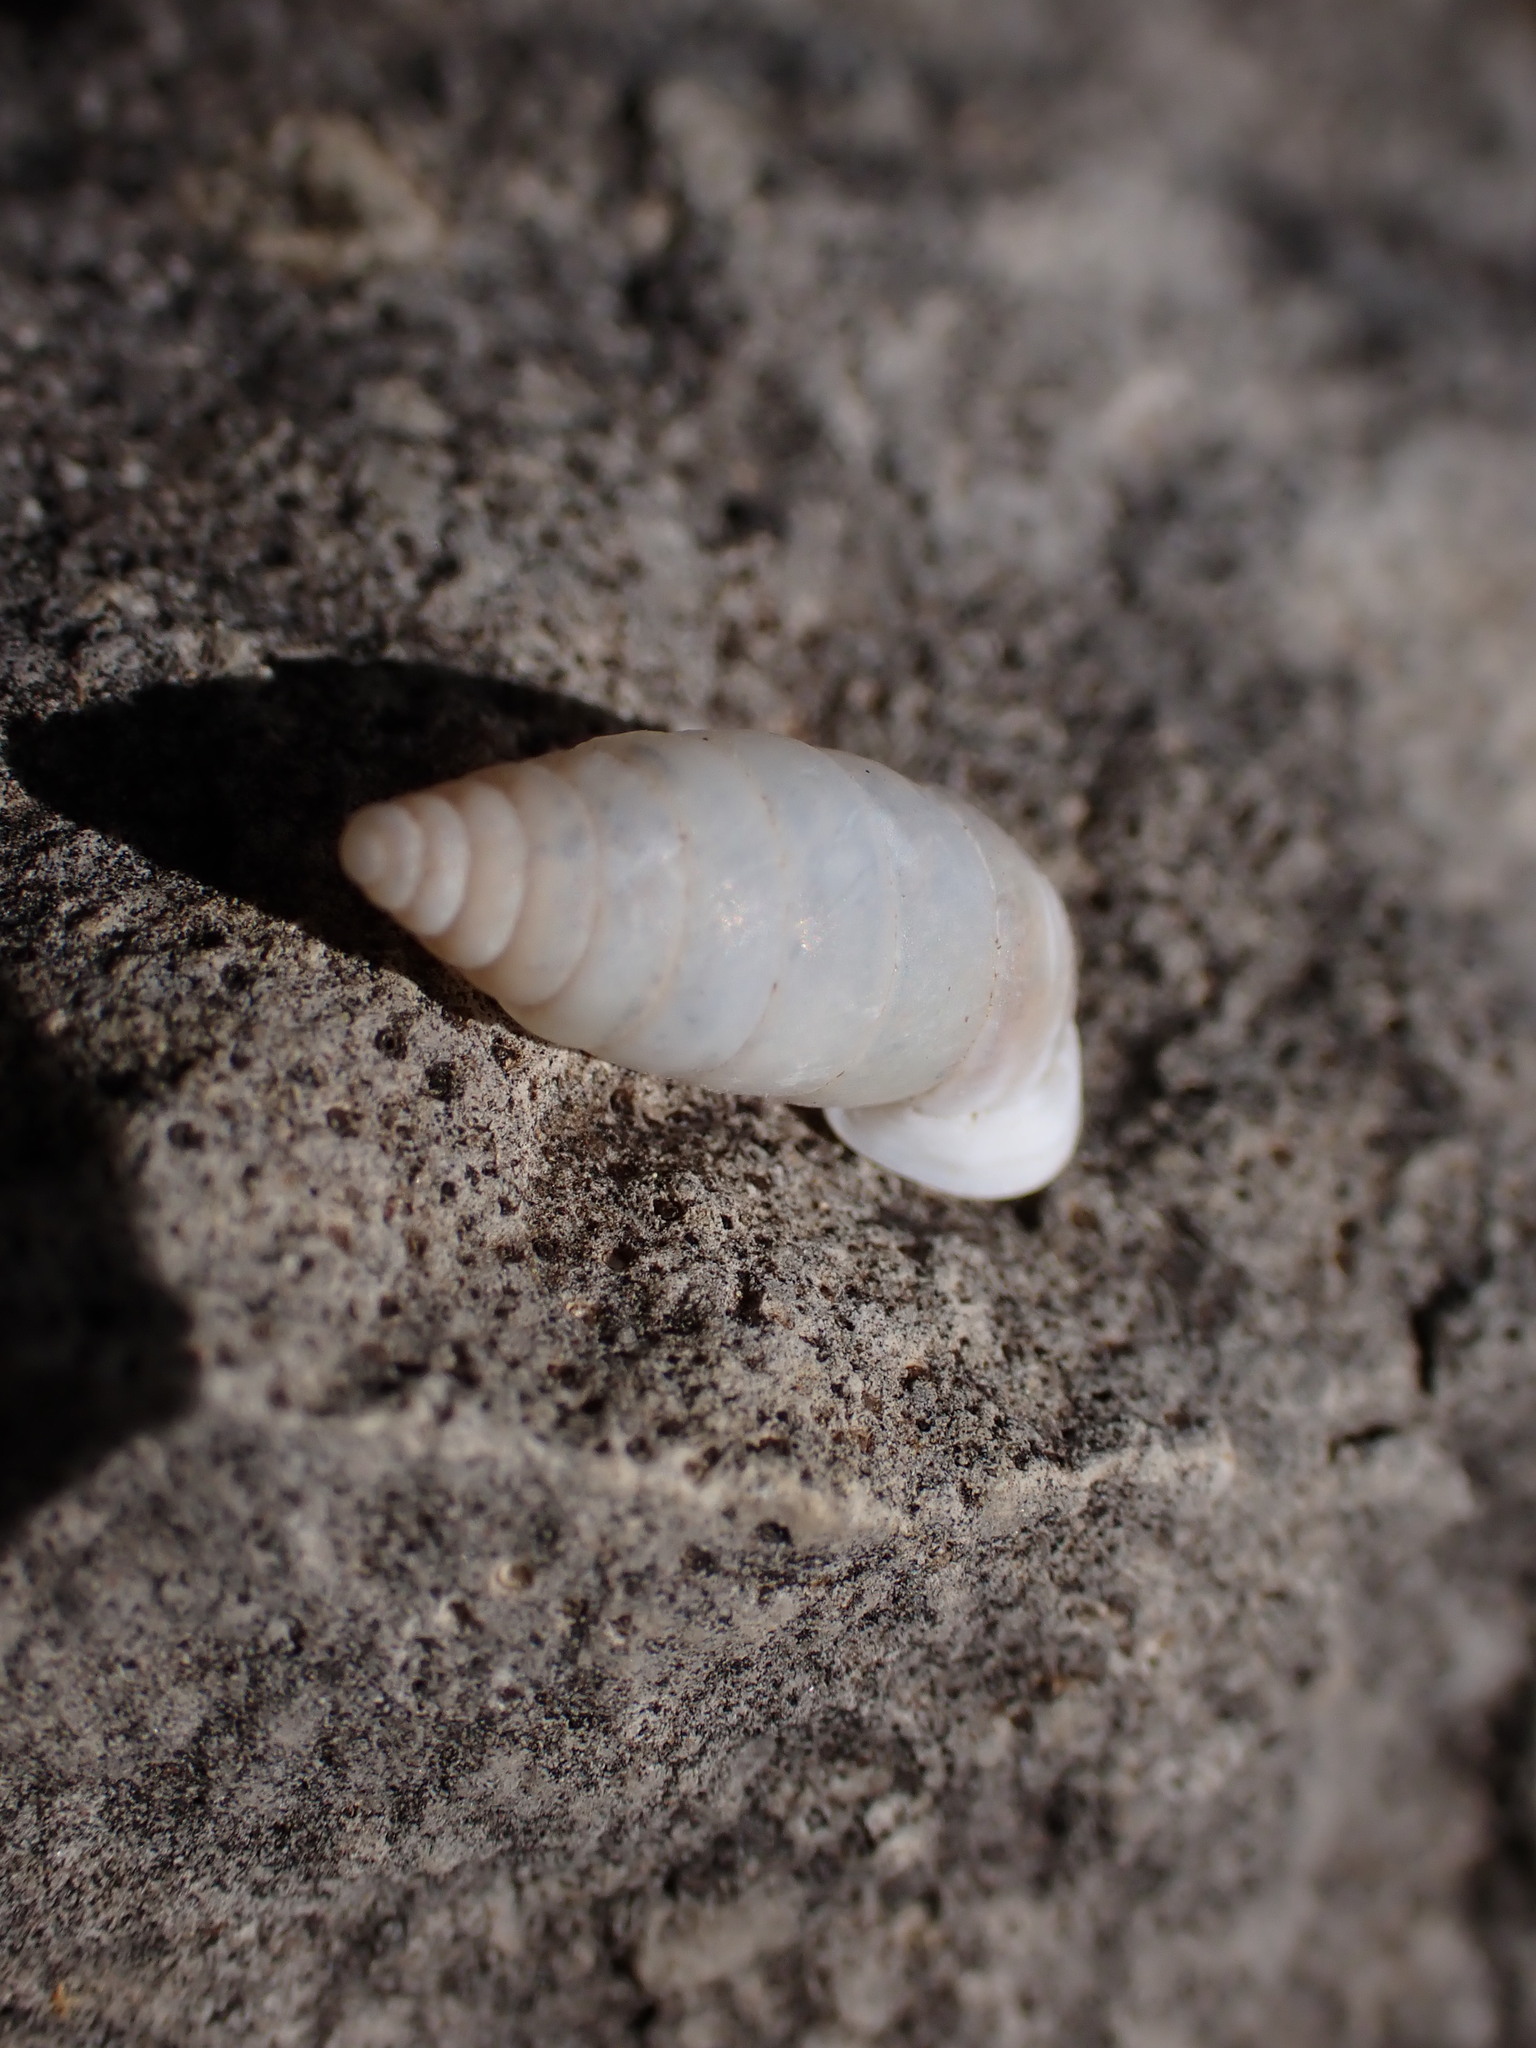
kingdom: Animalia
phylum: Mollusca
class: Gastropoda
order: Stylommatophora
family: Chondrinidae
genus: Granaria
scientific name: Granaria variabilis
